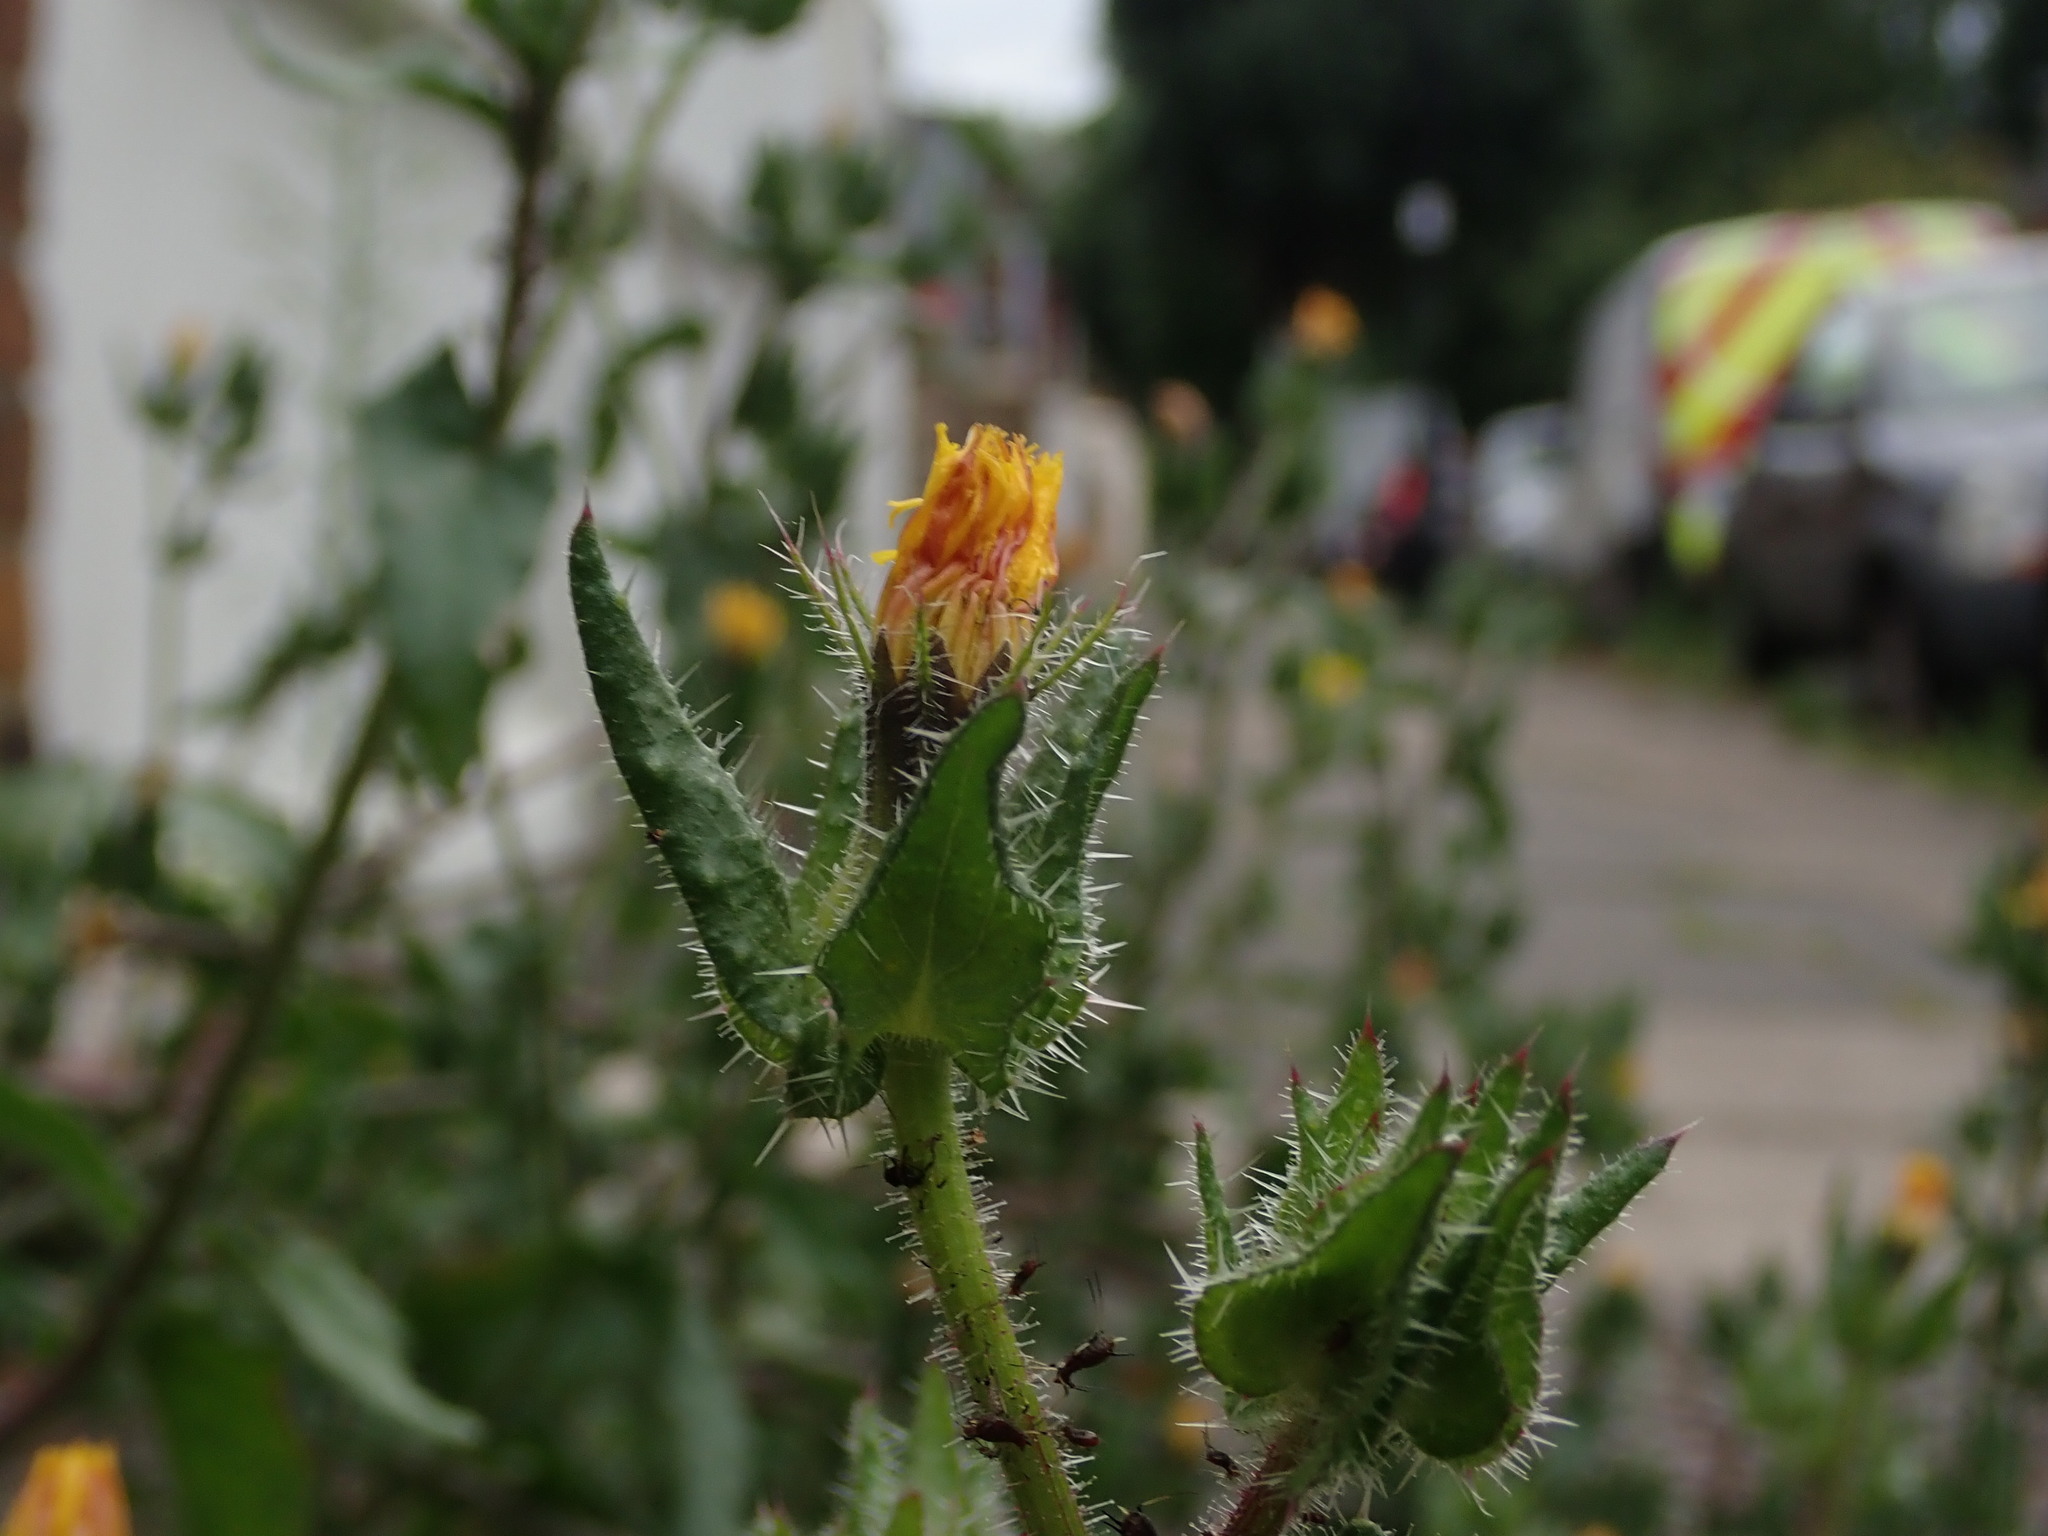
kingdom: Plantae
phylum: Tracheophyta
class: Magnoliopsida
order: Asterales
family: Asteraceae
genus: Helminthotheca
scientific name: Helminthotheca echioides
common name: Ox-tongue
